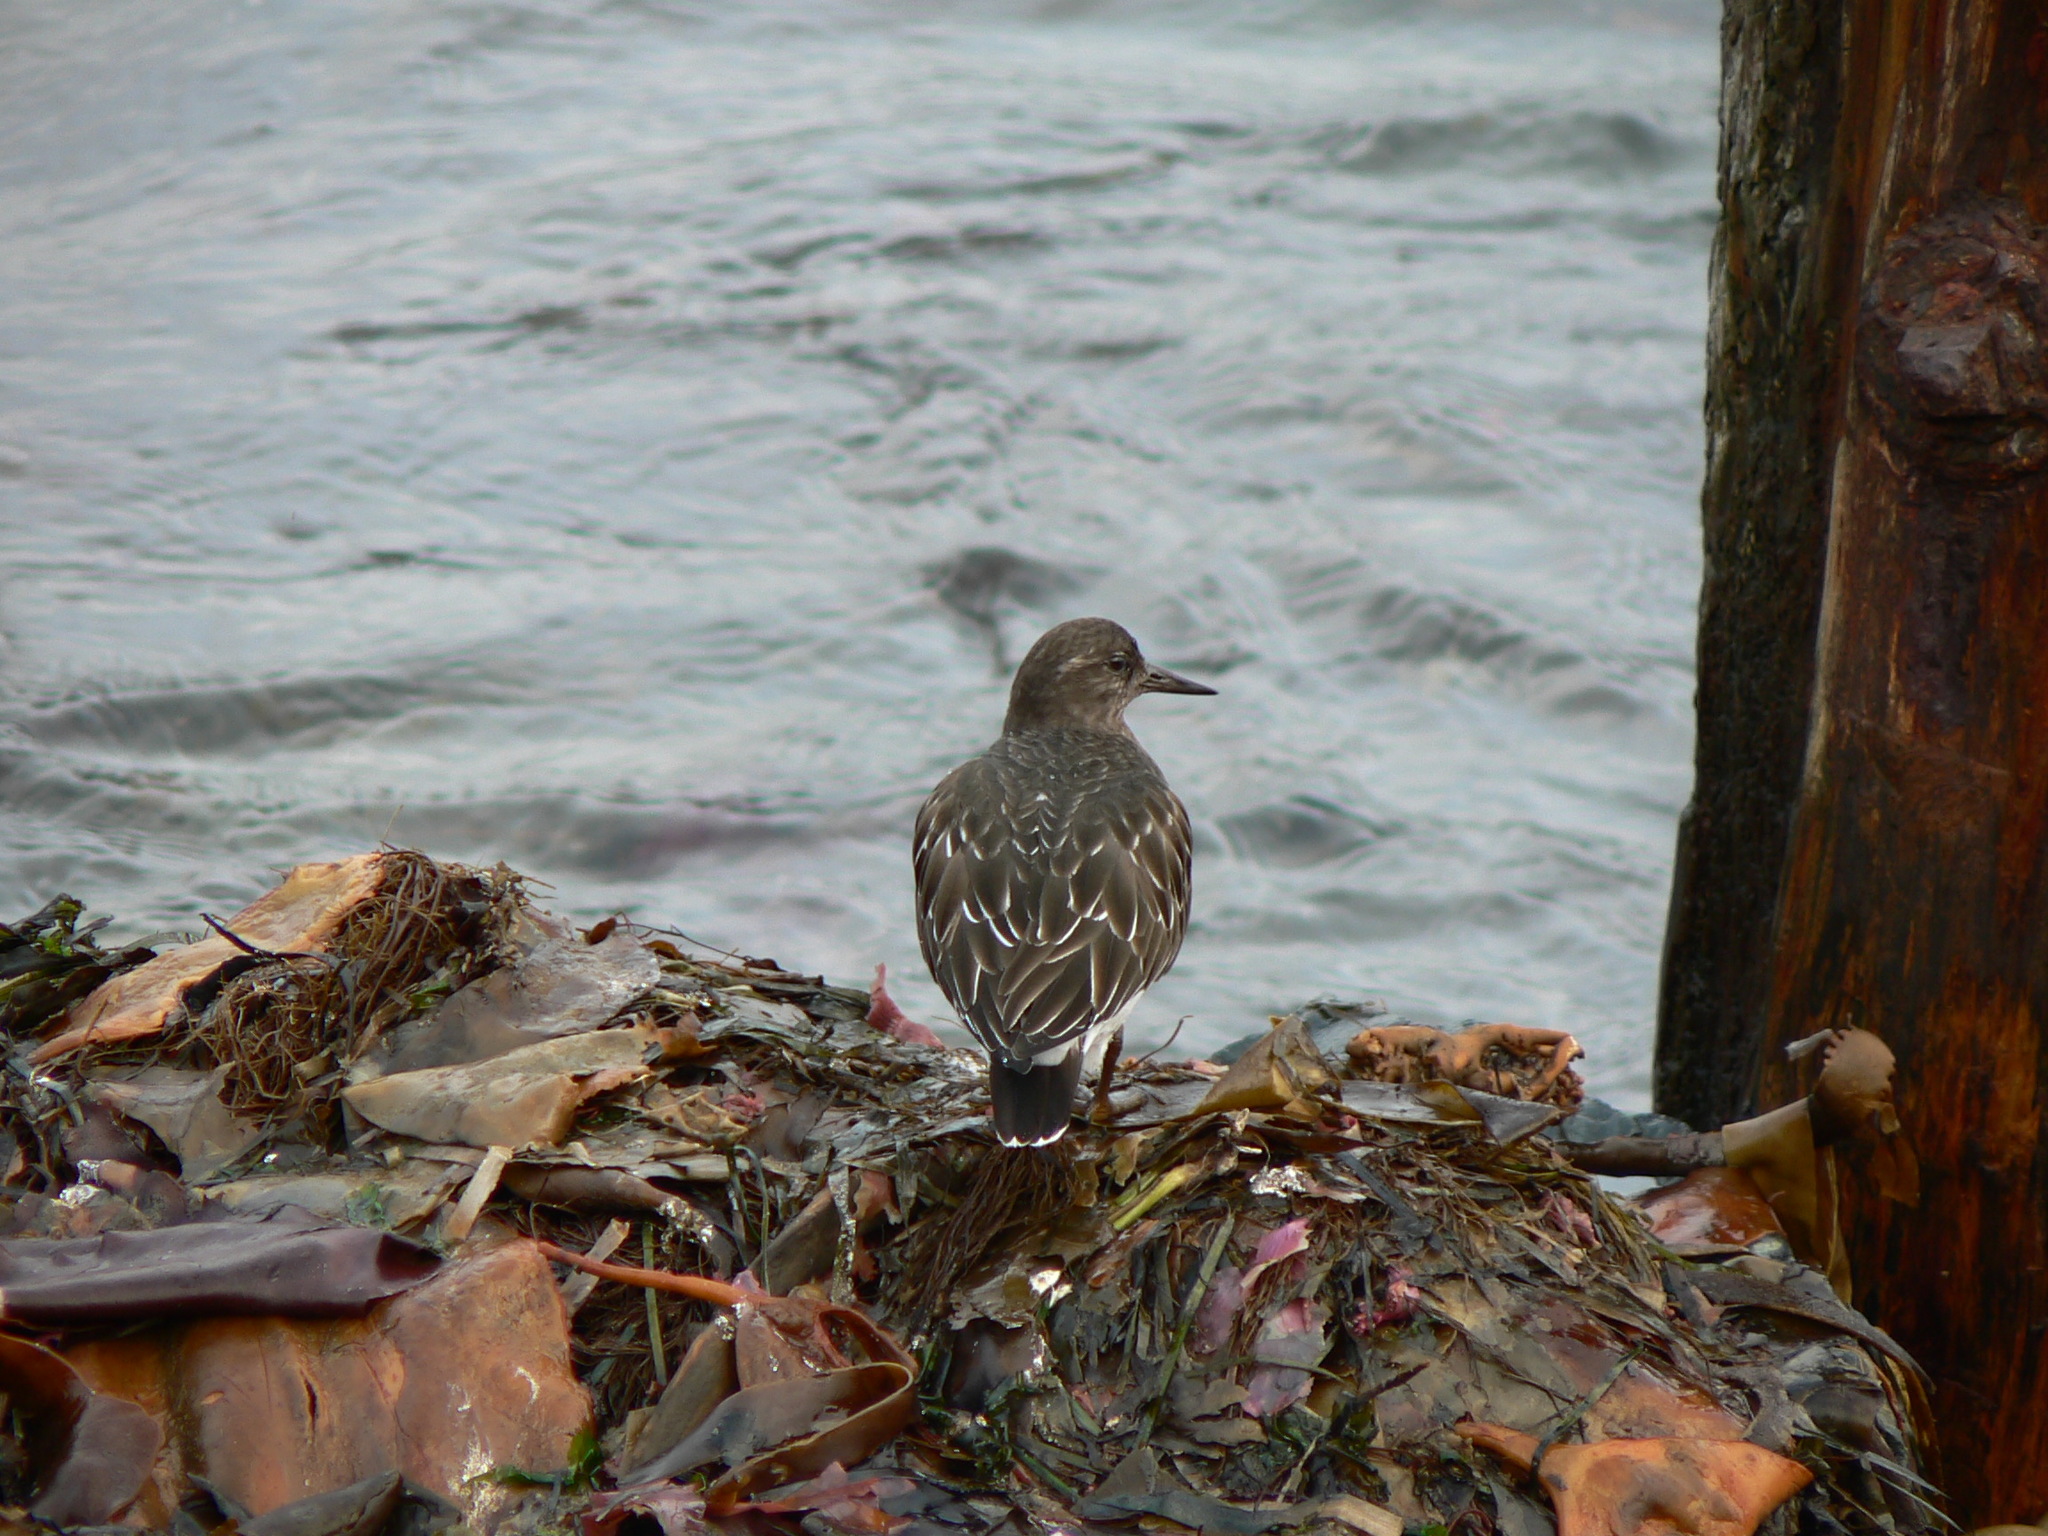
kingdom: Animalia
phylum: Chordata
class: Aves
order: Charadriiformes
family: Scolopacidae
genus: Arenaria
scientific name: Arenaria melanocephala
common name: Black turnstone
